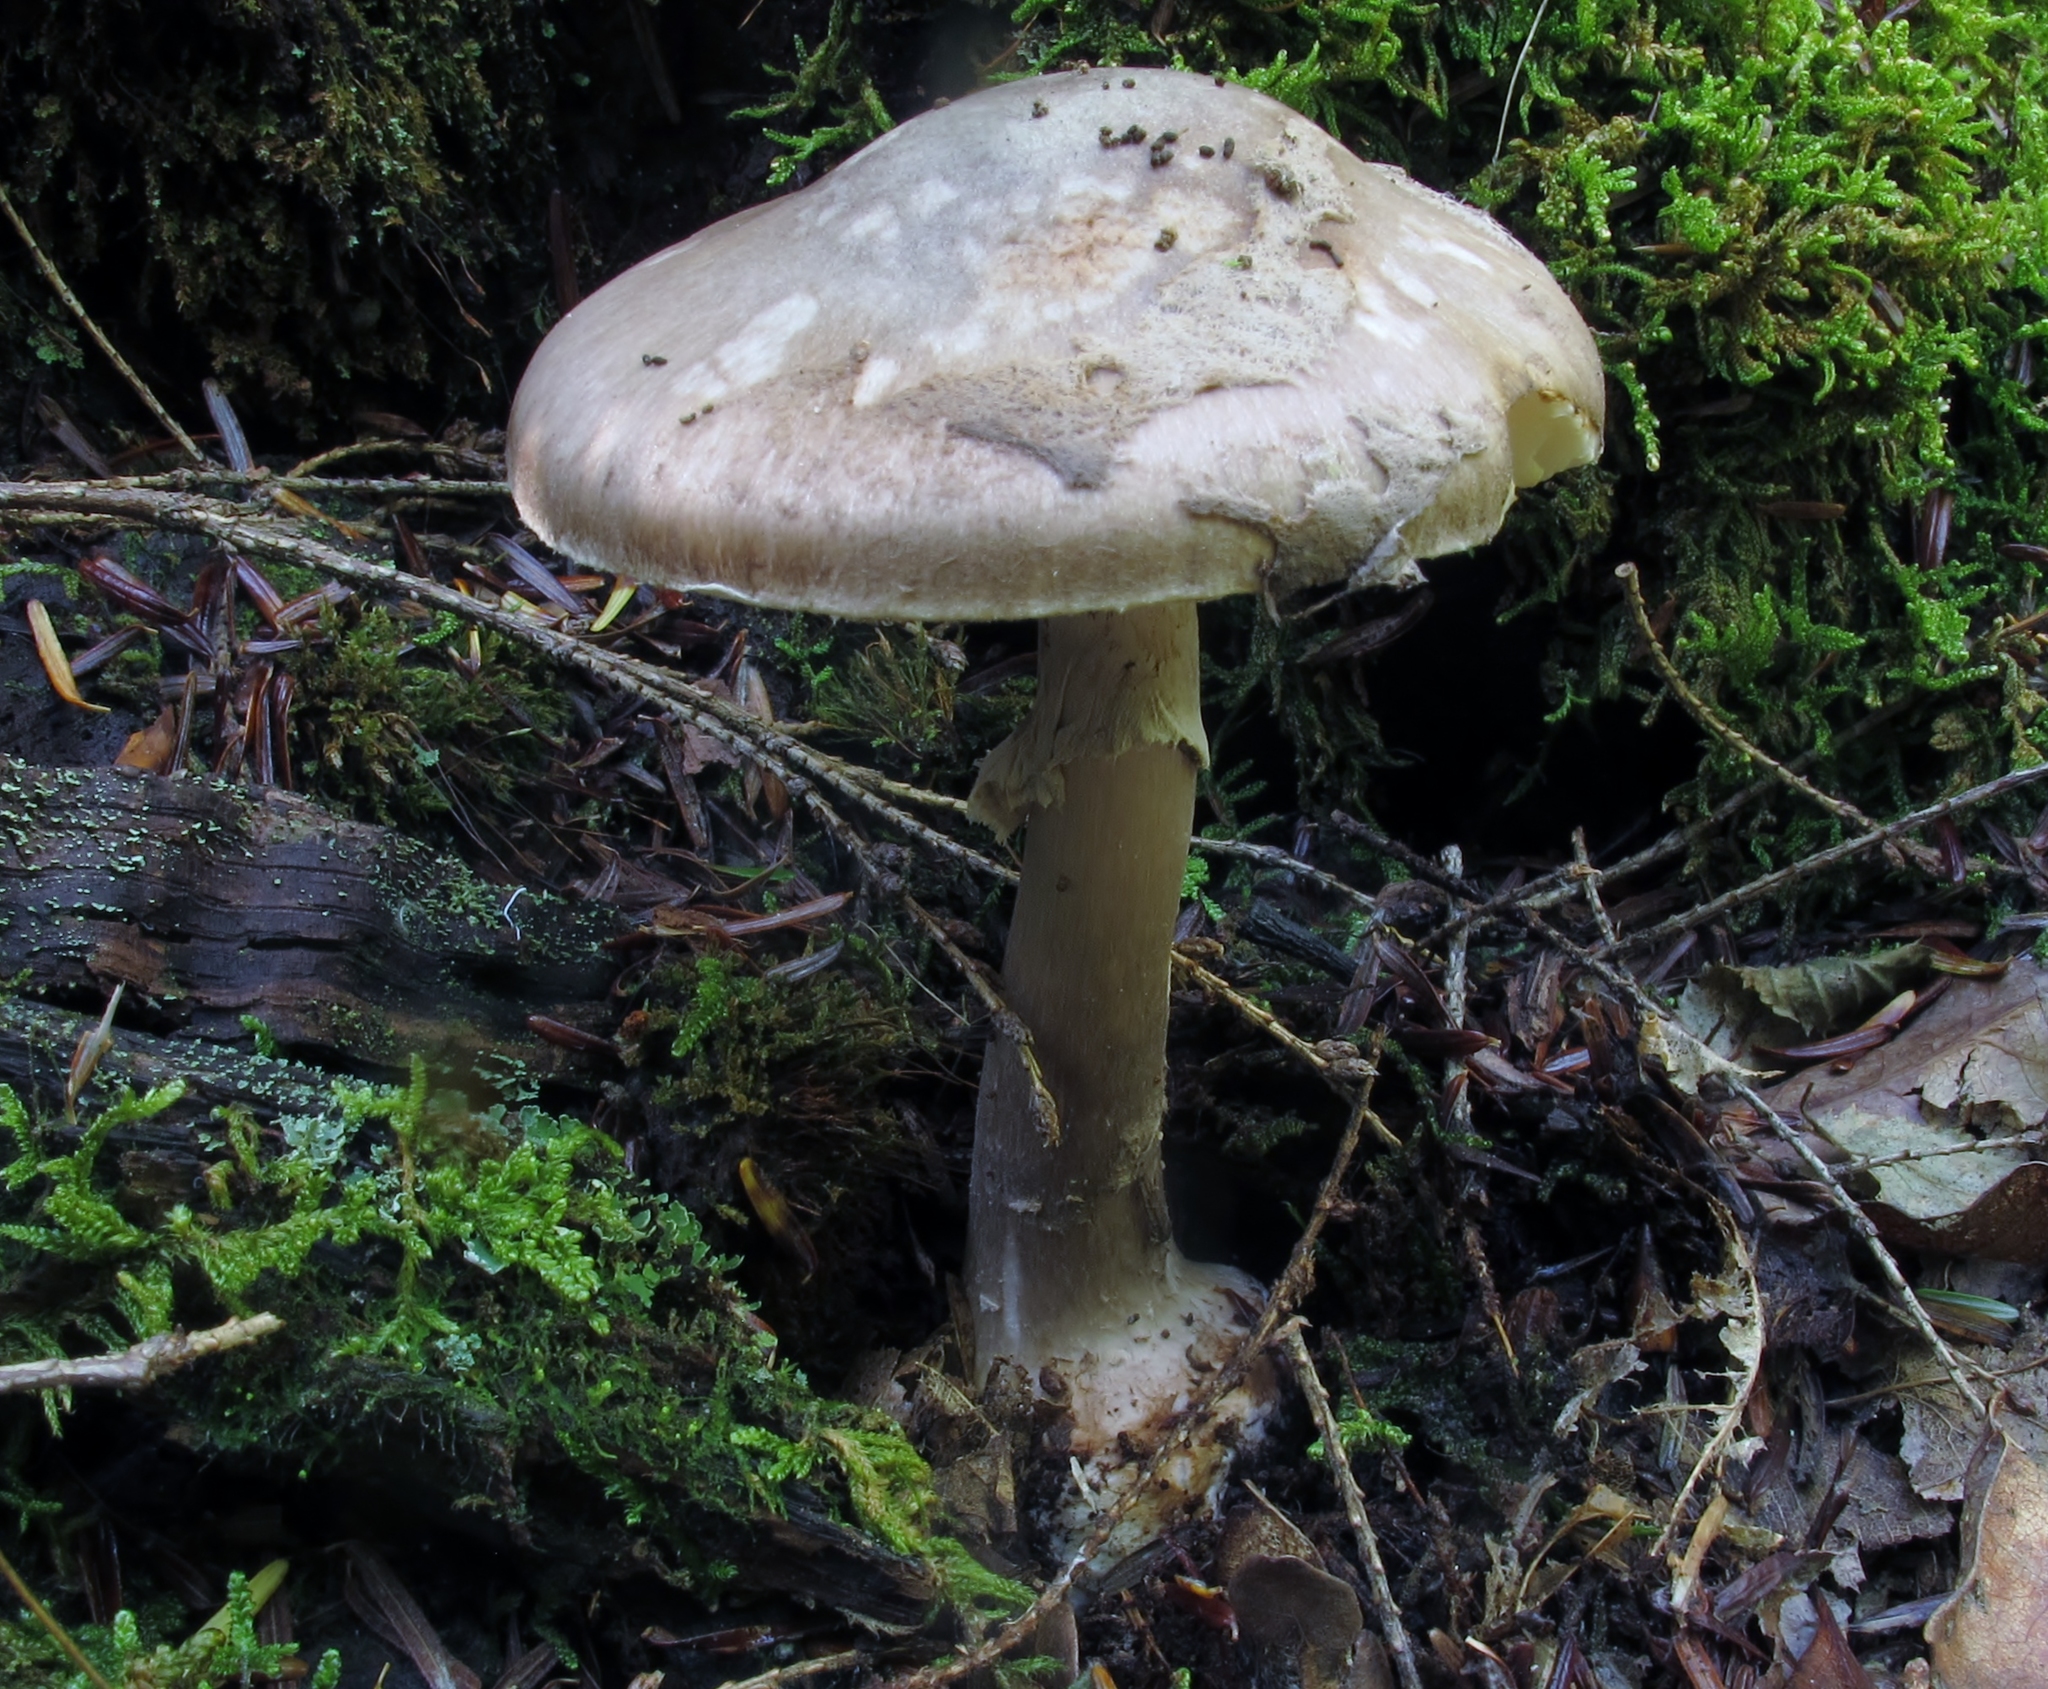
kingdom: Fungi
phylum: Basidiomycota
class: Agaricomycetes
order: Agaricales
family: Amanitaceae
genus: Amanita
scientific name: Amanita porphyria
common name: Grey veiled amanita
